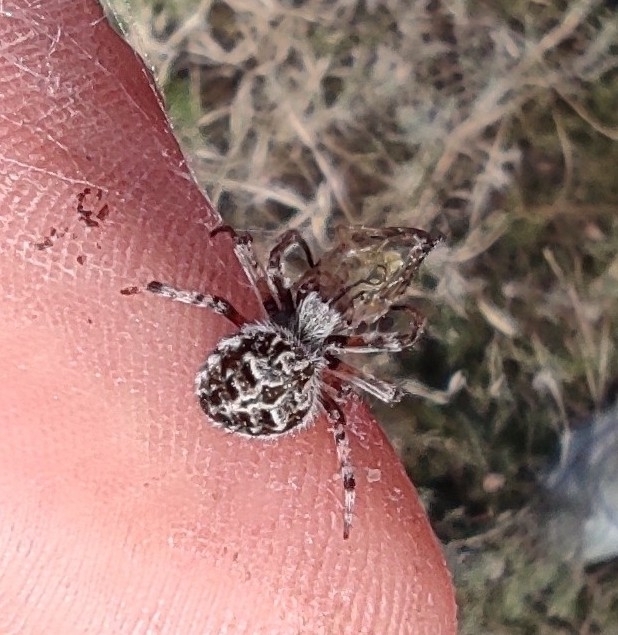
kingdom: Animalia
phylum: Arthropoda
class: Arachnida
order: Araneae
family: Araneidae
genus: Agalenatea
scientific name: Agalenatea redii
